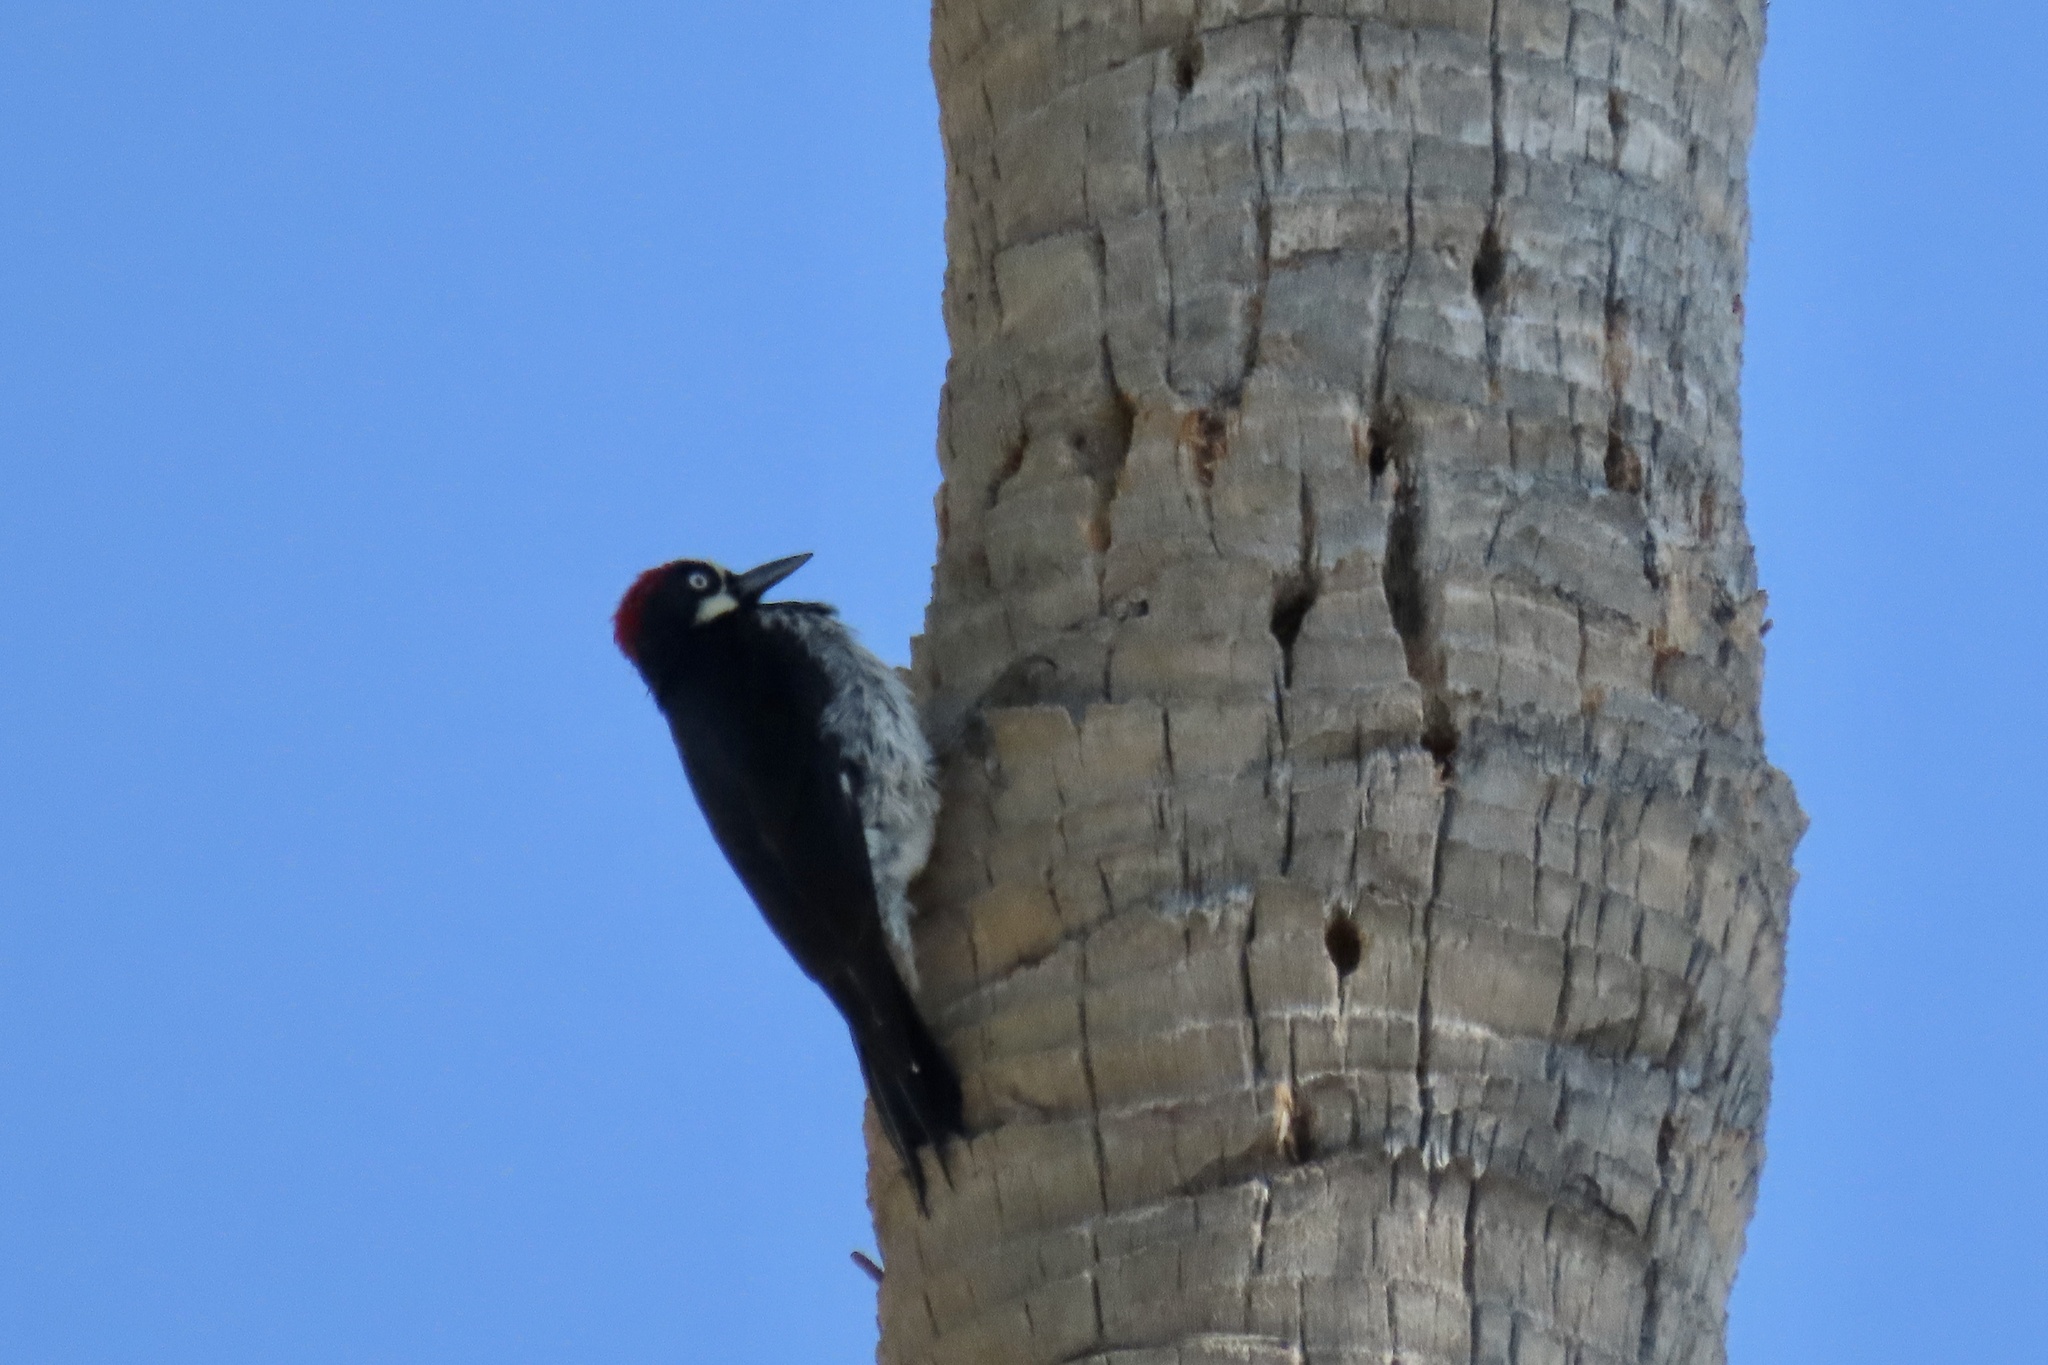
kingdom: Animalia
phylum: Chordata
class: Aves
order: Piciformes
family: Picidae
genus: Melanerpes
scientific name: Melanerpes formicivorus
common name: Acorn woodpecker
